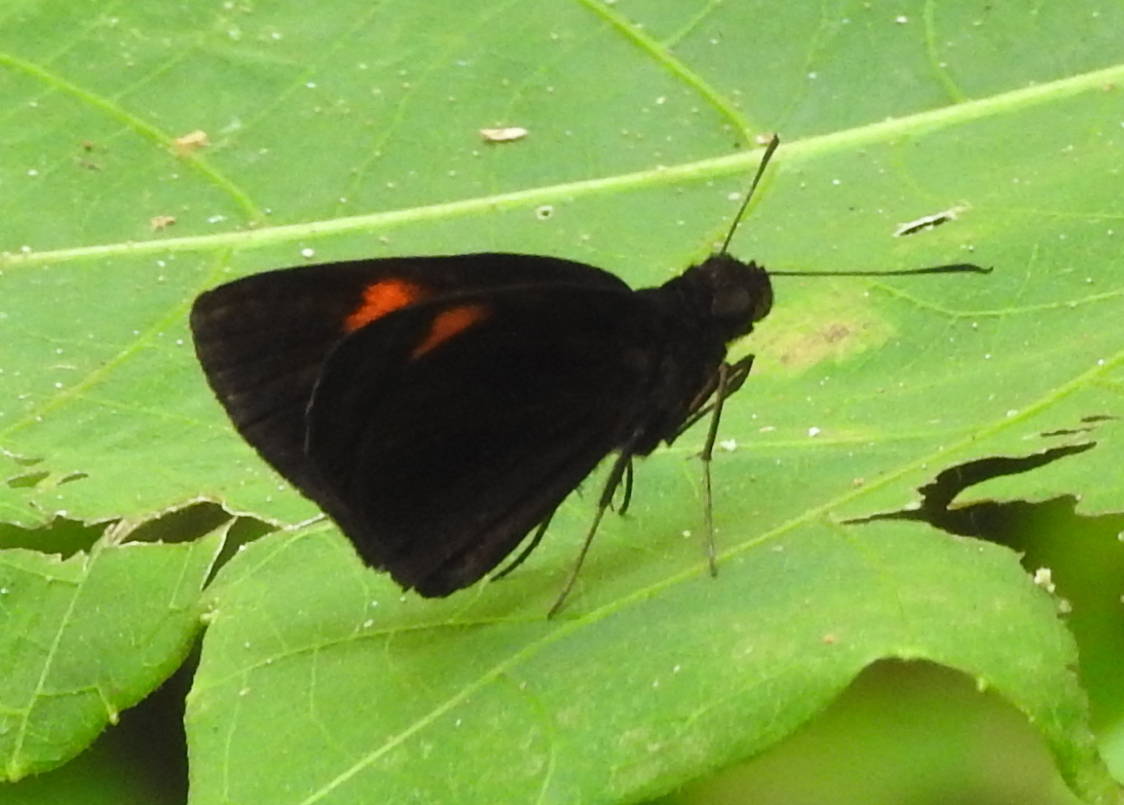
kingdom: Animalia
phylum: Arthropoda
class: Insecta
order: Lepidoptera
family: Hesperiidae
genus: Koruthaialos
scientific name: Koruthaialos rubecula
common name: Narrow-banded velvet bob
